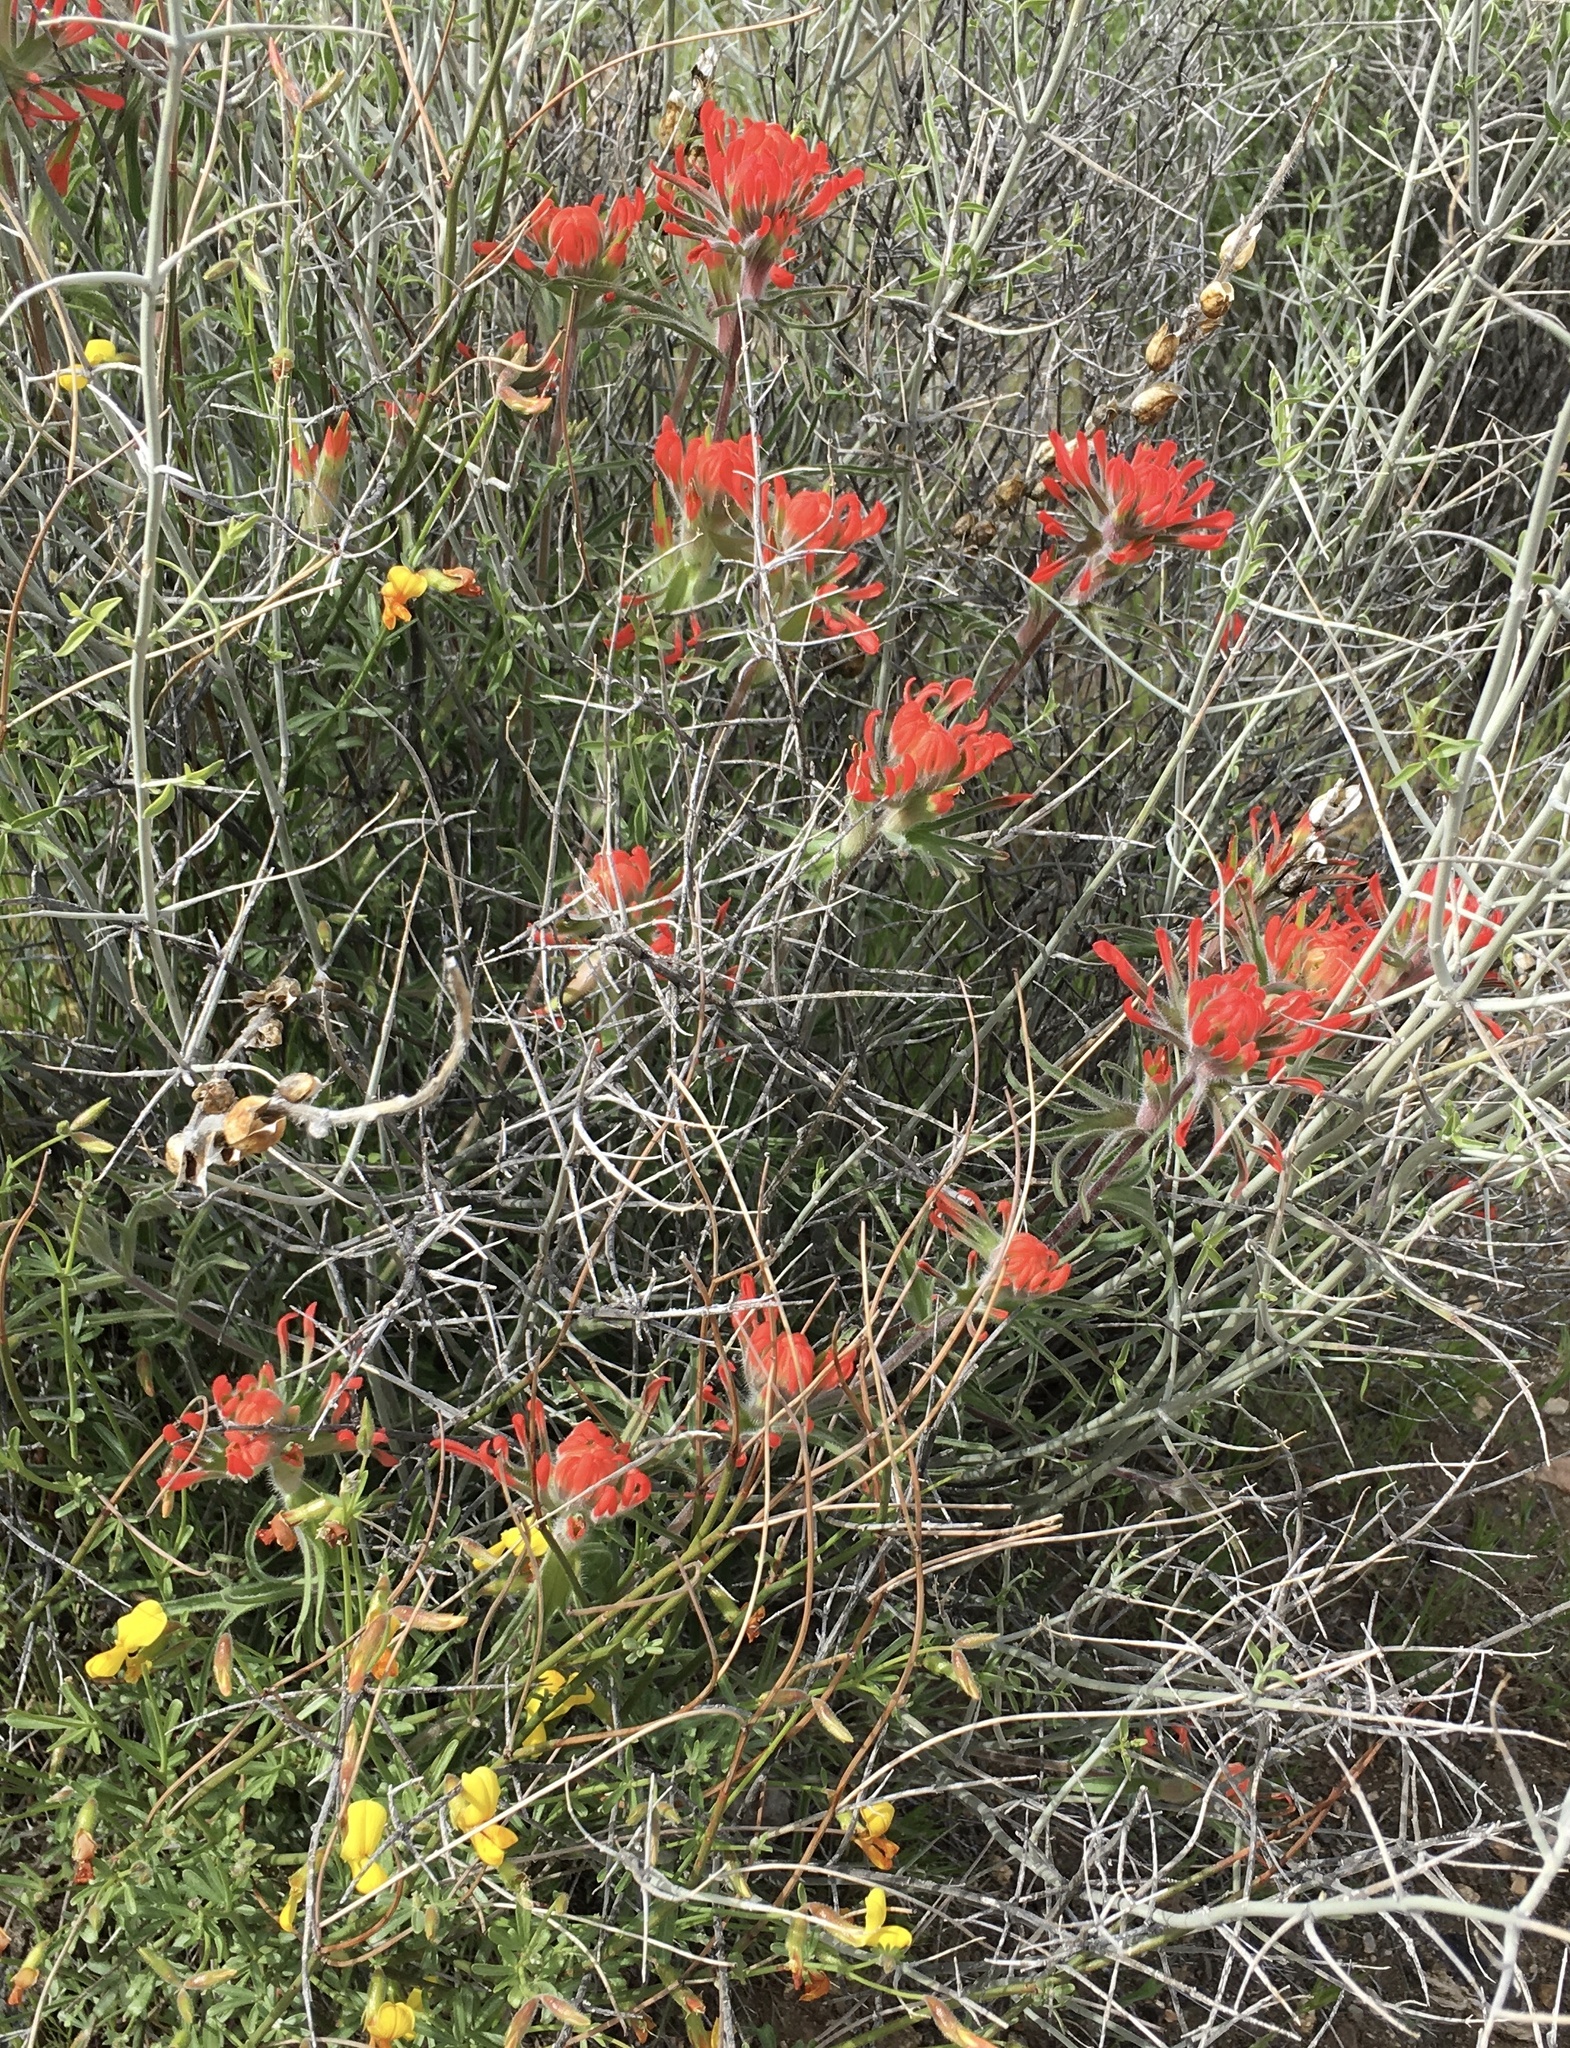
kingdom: Plantae
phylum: Tracheophyta
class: Magnoliopsida
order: Lamiales
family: Orobanchaceae
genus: Castilleja
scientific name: Castilleja chromosa
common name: Desert paintbrush
